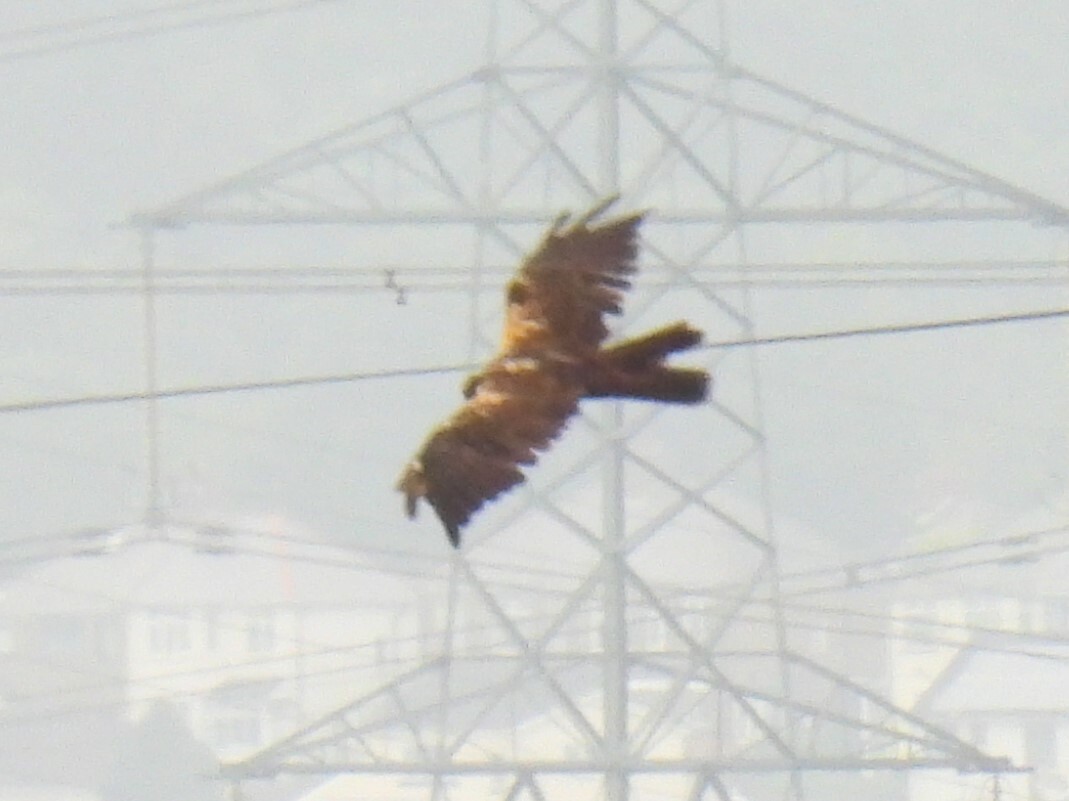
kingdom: Animalia
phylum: Chordata
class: Aves
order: Accipitriformes
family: Accipitridae
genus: Circus
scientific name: Circus aeruginosus
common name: Western marsh harrier
